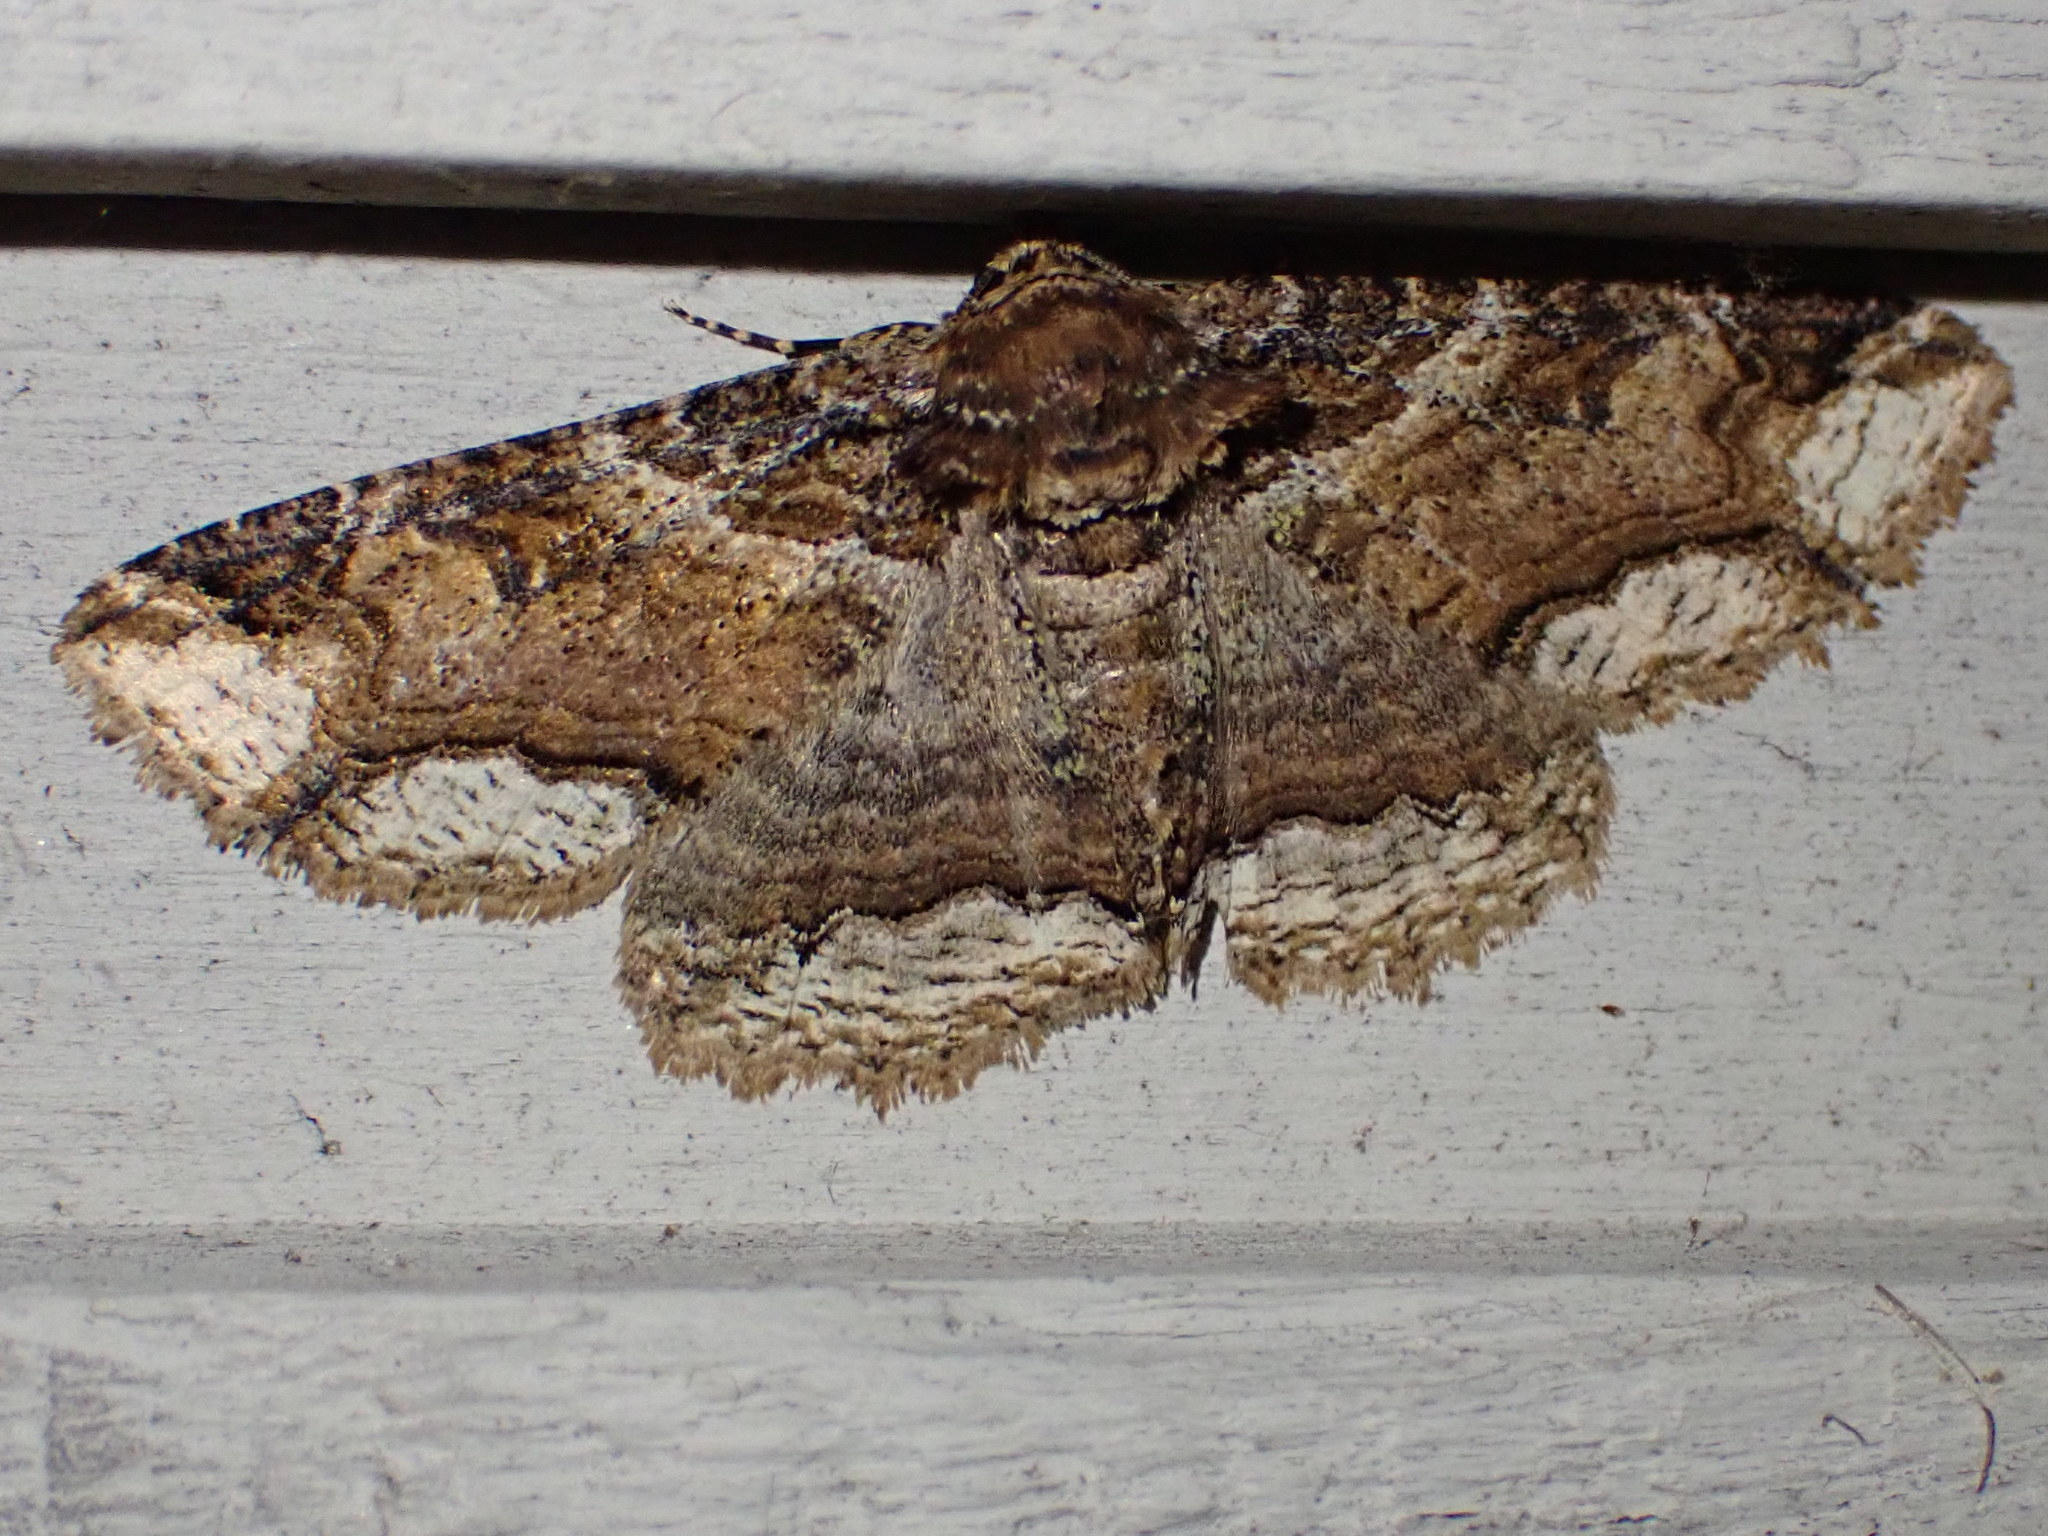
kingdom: Animalia
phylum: Arthropoda
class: Insecta
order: Lepidoptera
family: Erebidae
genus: Zale
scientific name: Zale minerea
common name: Colorful zale moth
